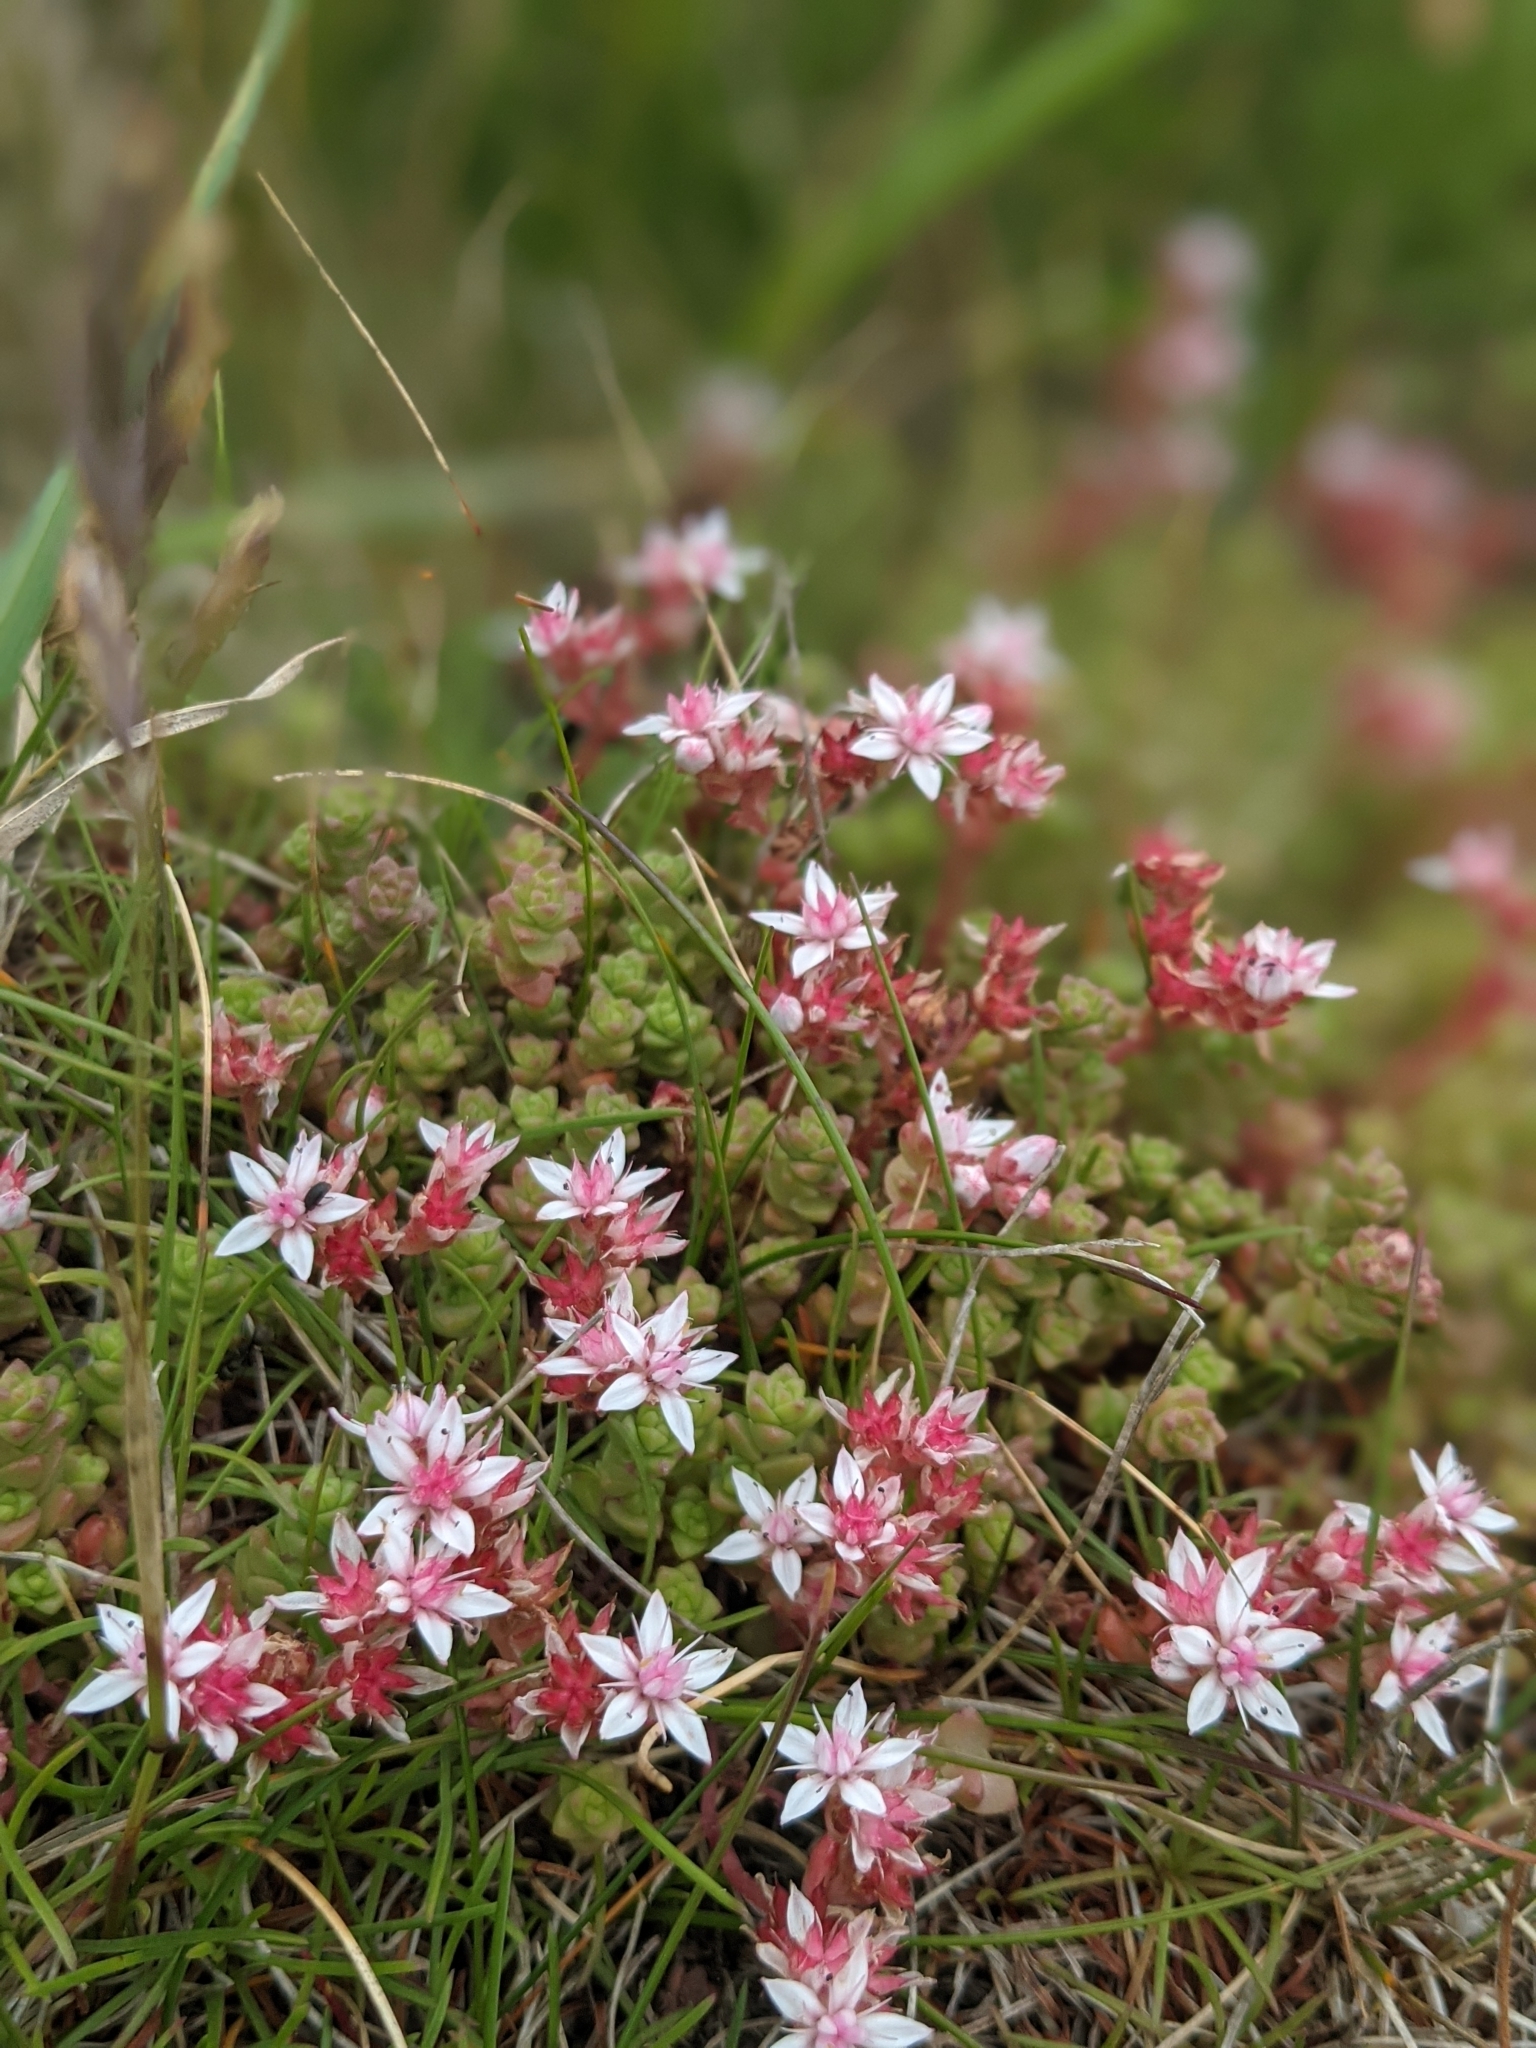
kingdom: Plantae
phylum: Tracheophyta
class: Magnoliopsida
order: Saxifragales
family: Crassulaceae
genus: Sedum
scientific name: Sedum anglicum
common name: English stonecrop
